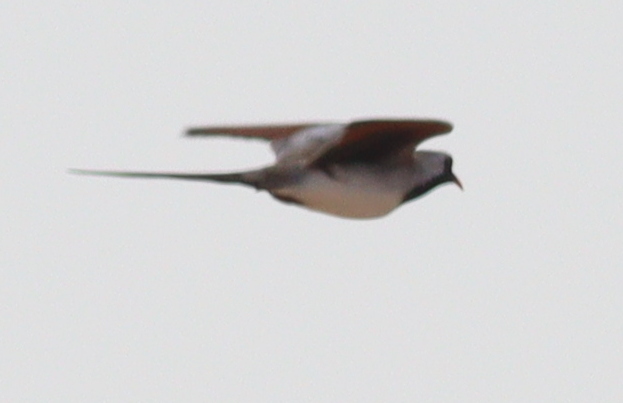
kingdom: Animalia
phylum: Chordata
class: Aves
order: Columbiformes
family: Columbidae
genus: Oena
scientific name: Oena capensis
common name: Namaqua dove
